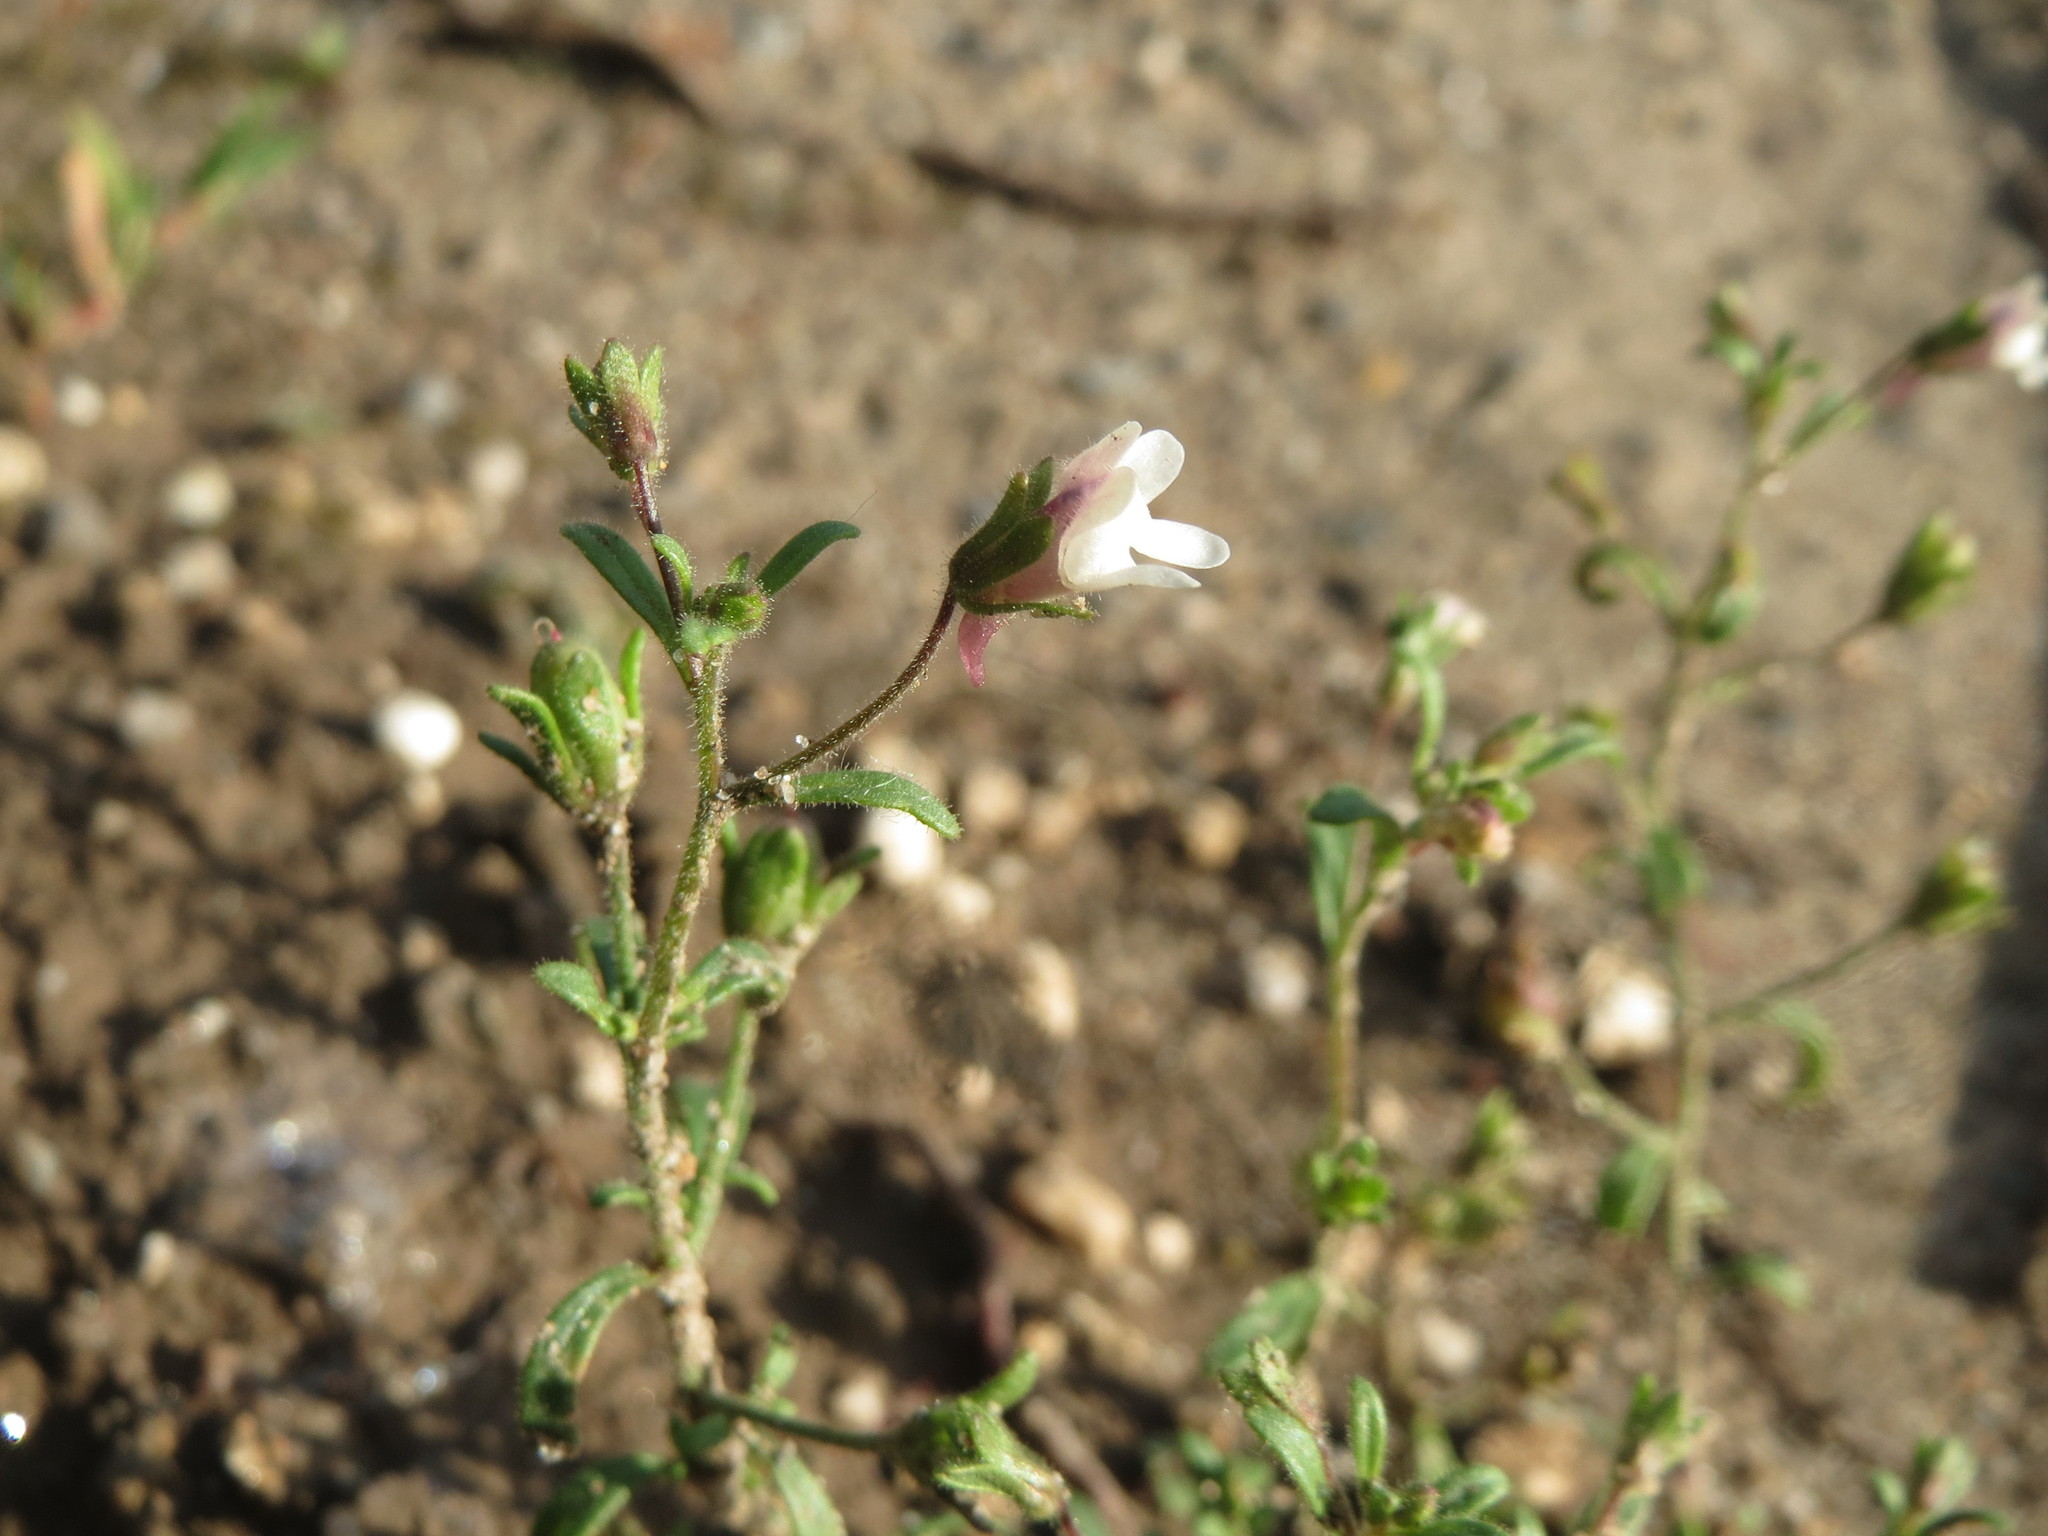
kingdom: Plantae
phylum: Tracheophyta
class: Magnoliopsida
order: Lamiales
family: Plantaginaceae
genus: Chaenorhinum
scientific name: Chaenorhinum minus
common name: Dwarf snapdragon
